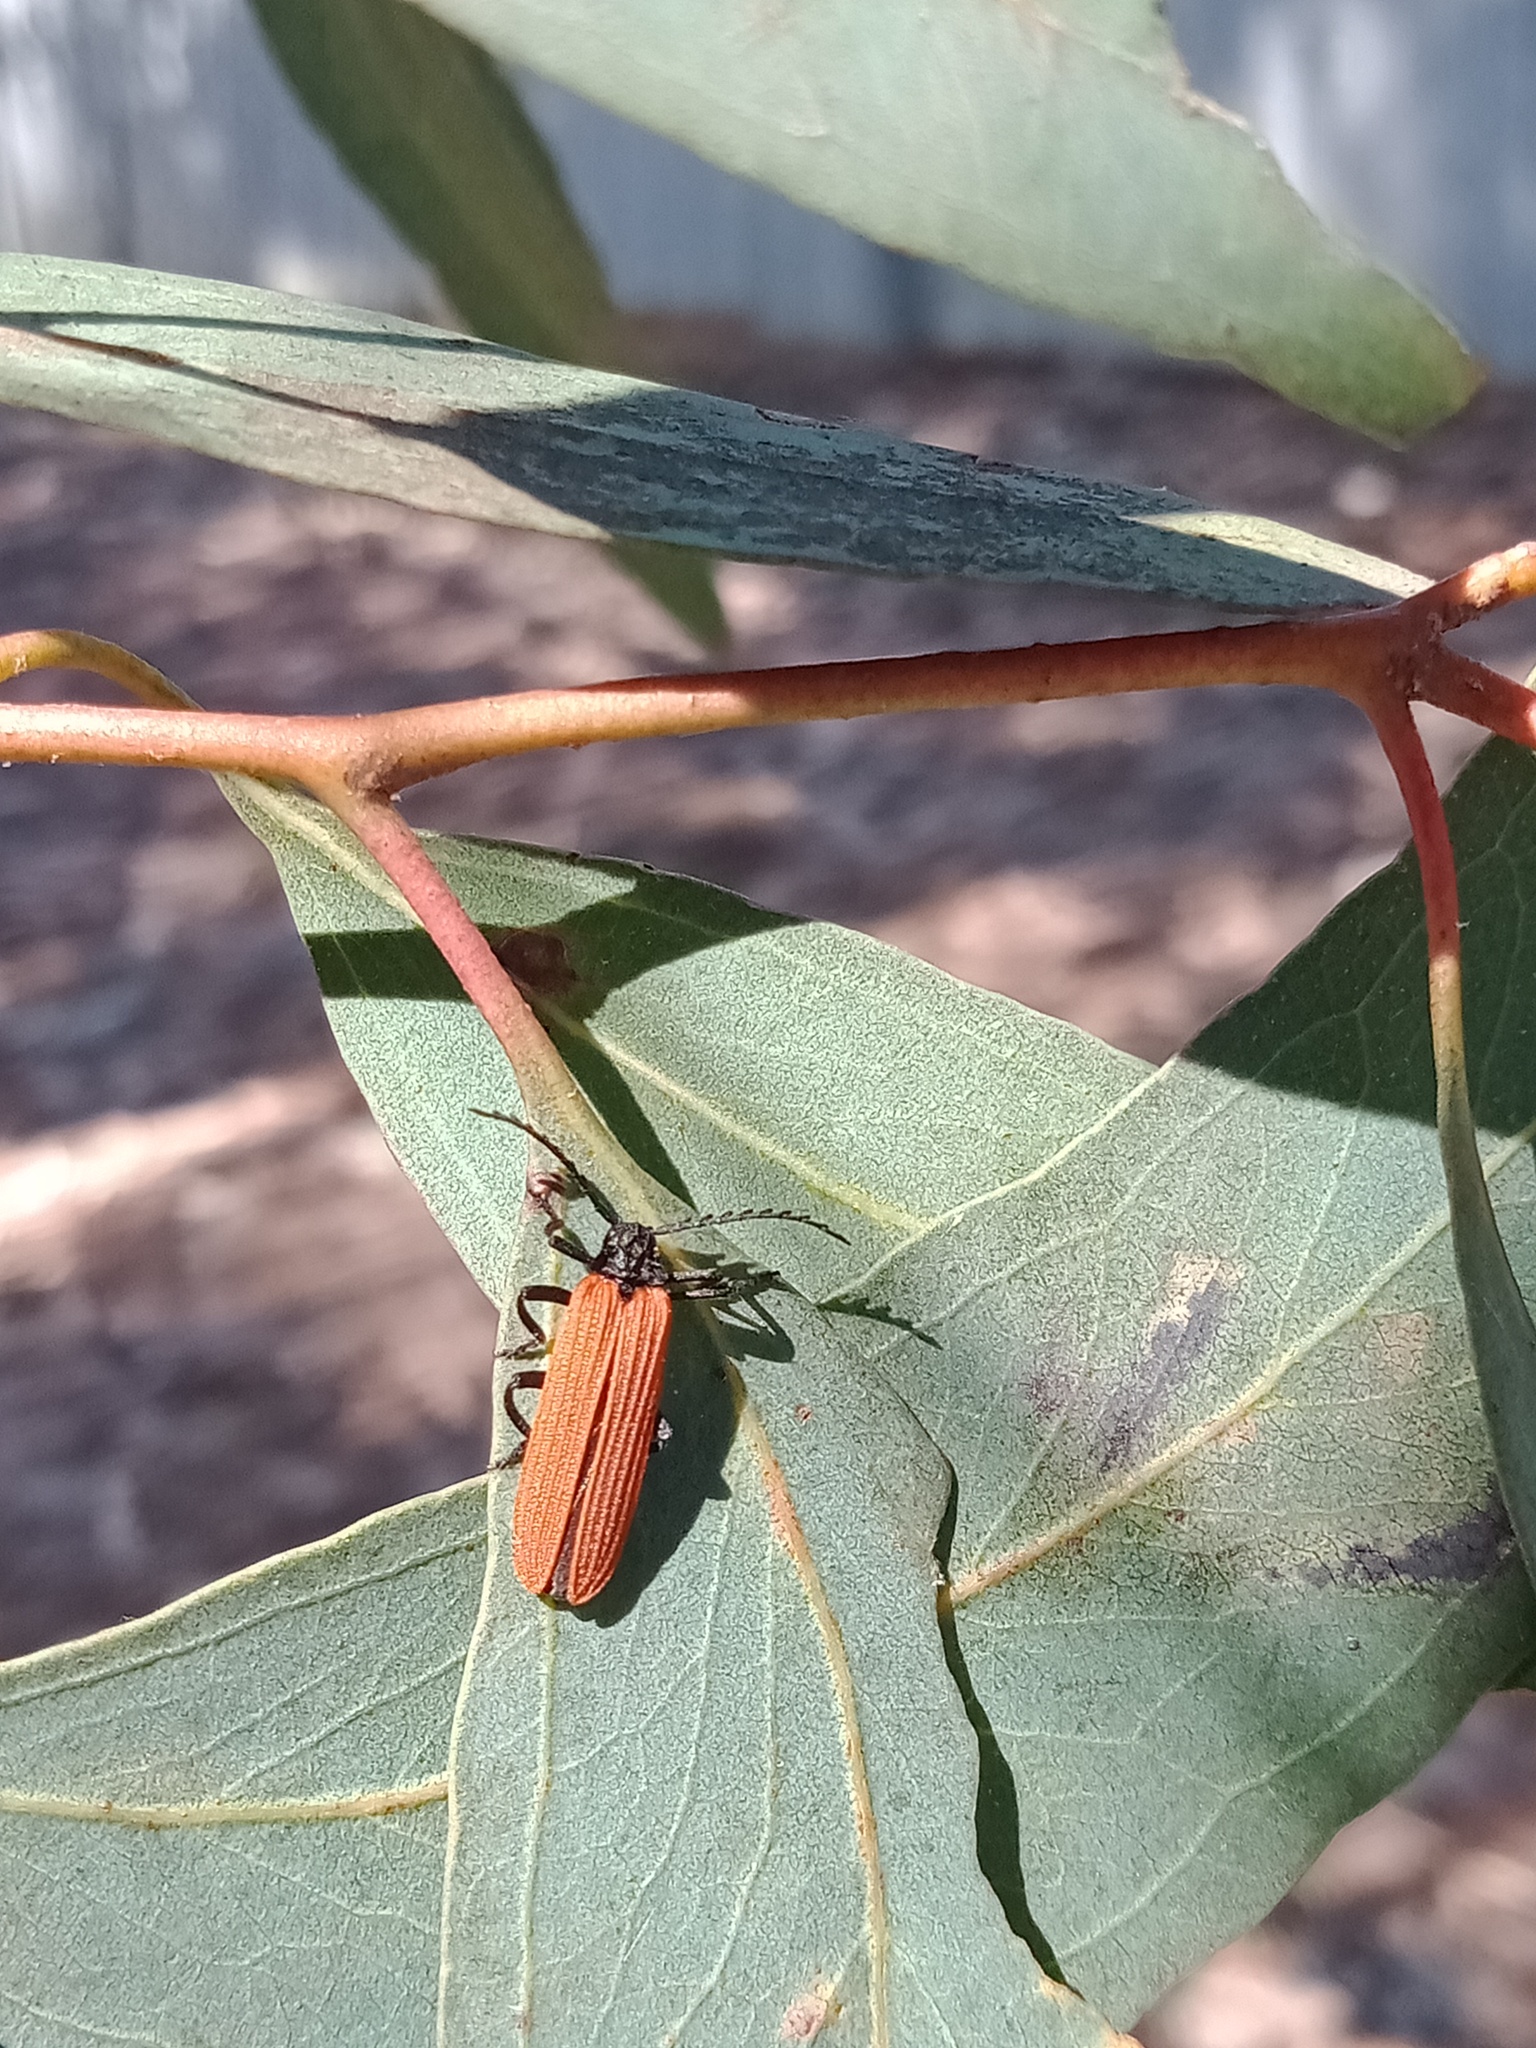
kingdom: Animalia
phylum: Arthropoda
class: Insecta
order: Coleoptera
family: Lycidae
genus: Porrostoma
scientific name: Porrostoma rhipidium
